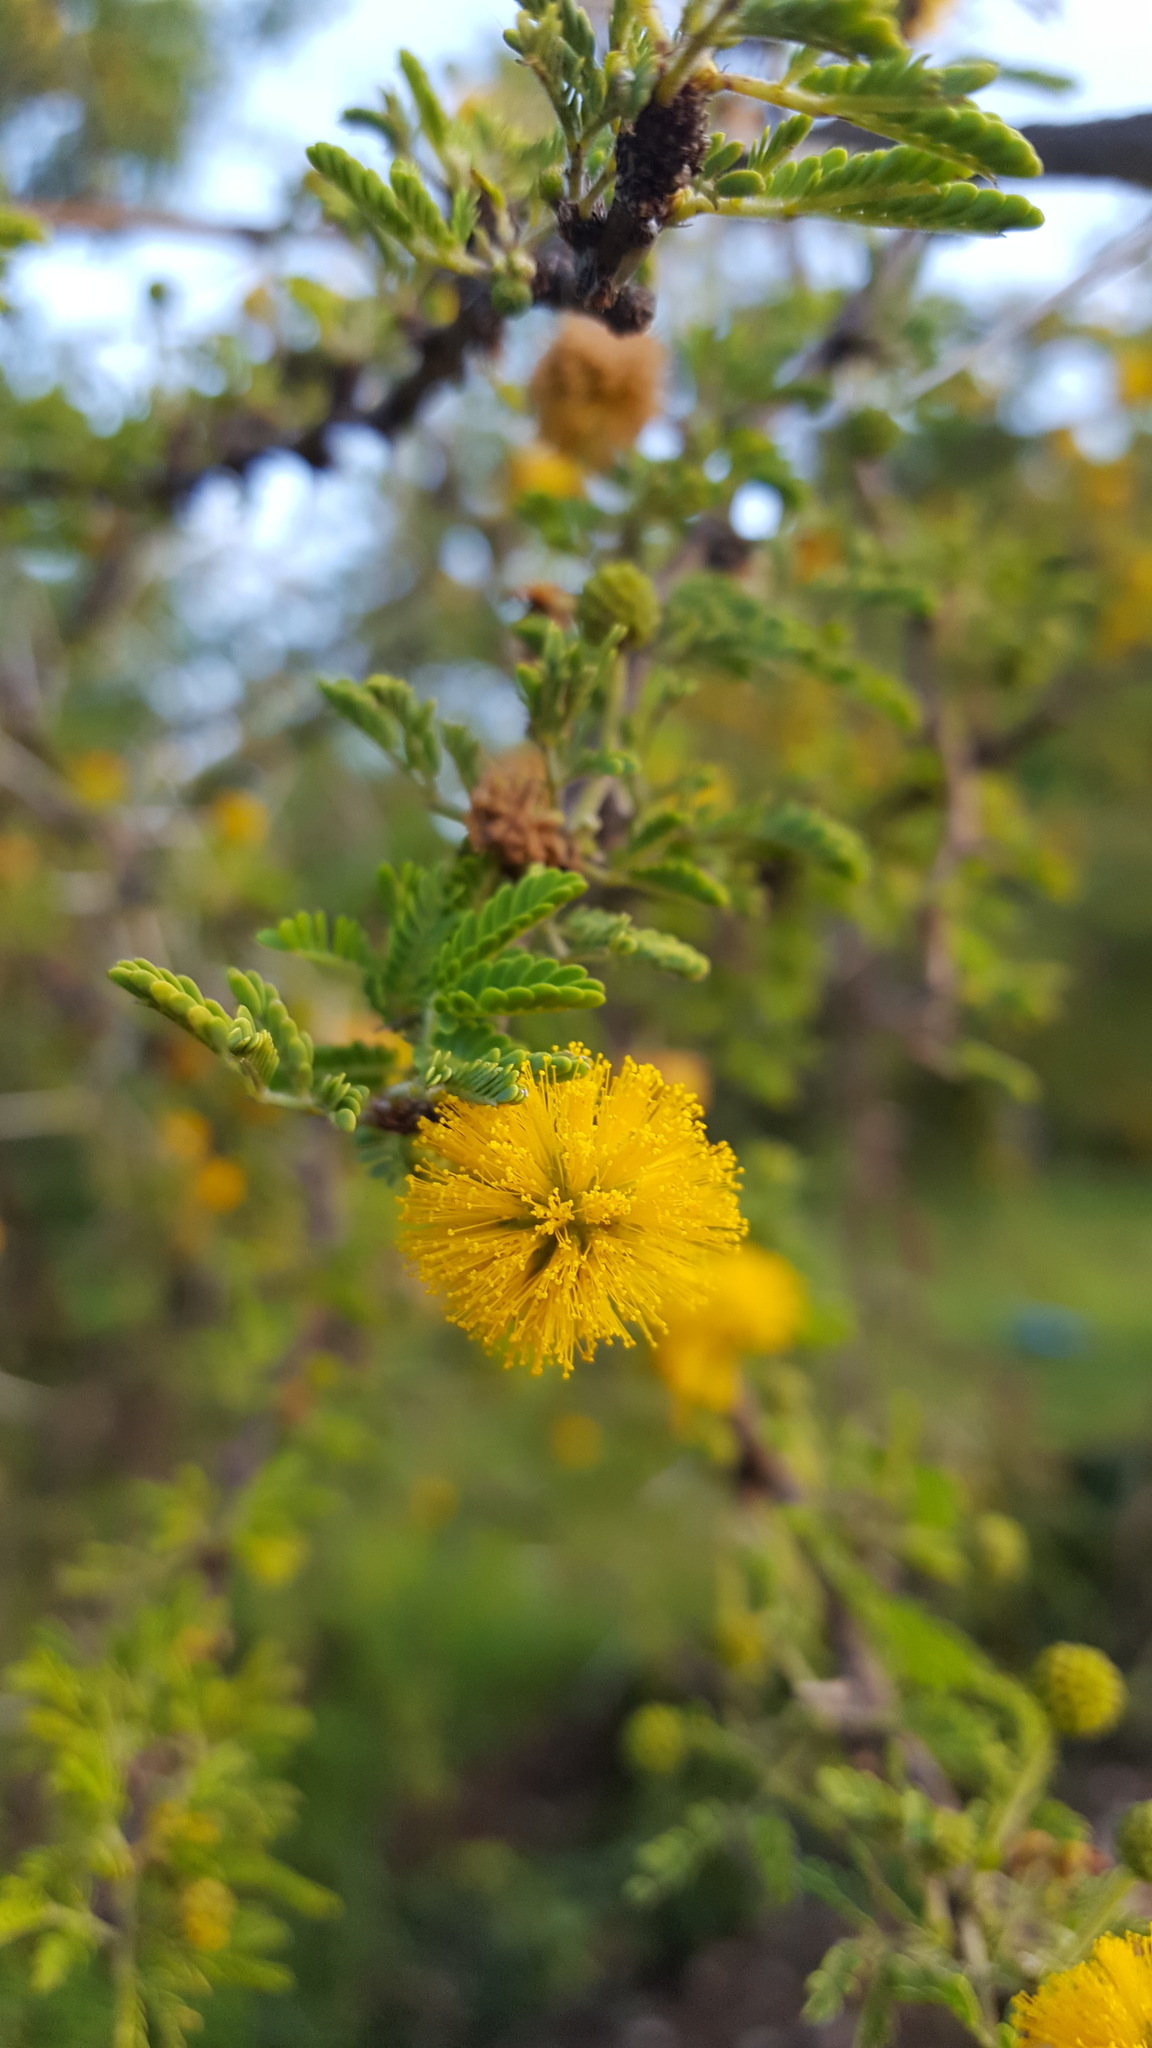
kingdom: Plantae
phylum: Tracheophyta
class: Magnoliopsida
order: Fabales
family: Fabaceae
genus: Vachellia
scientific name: Vachellia farnesiana
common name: Sweet acacia
